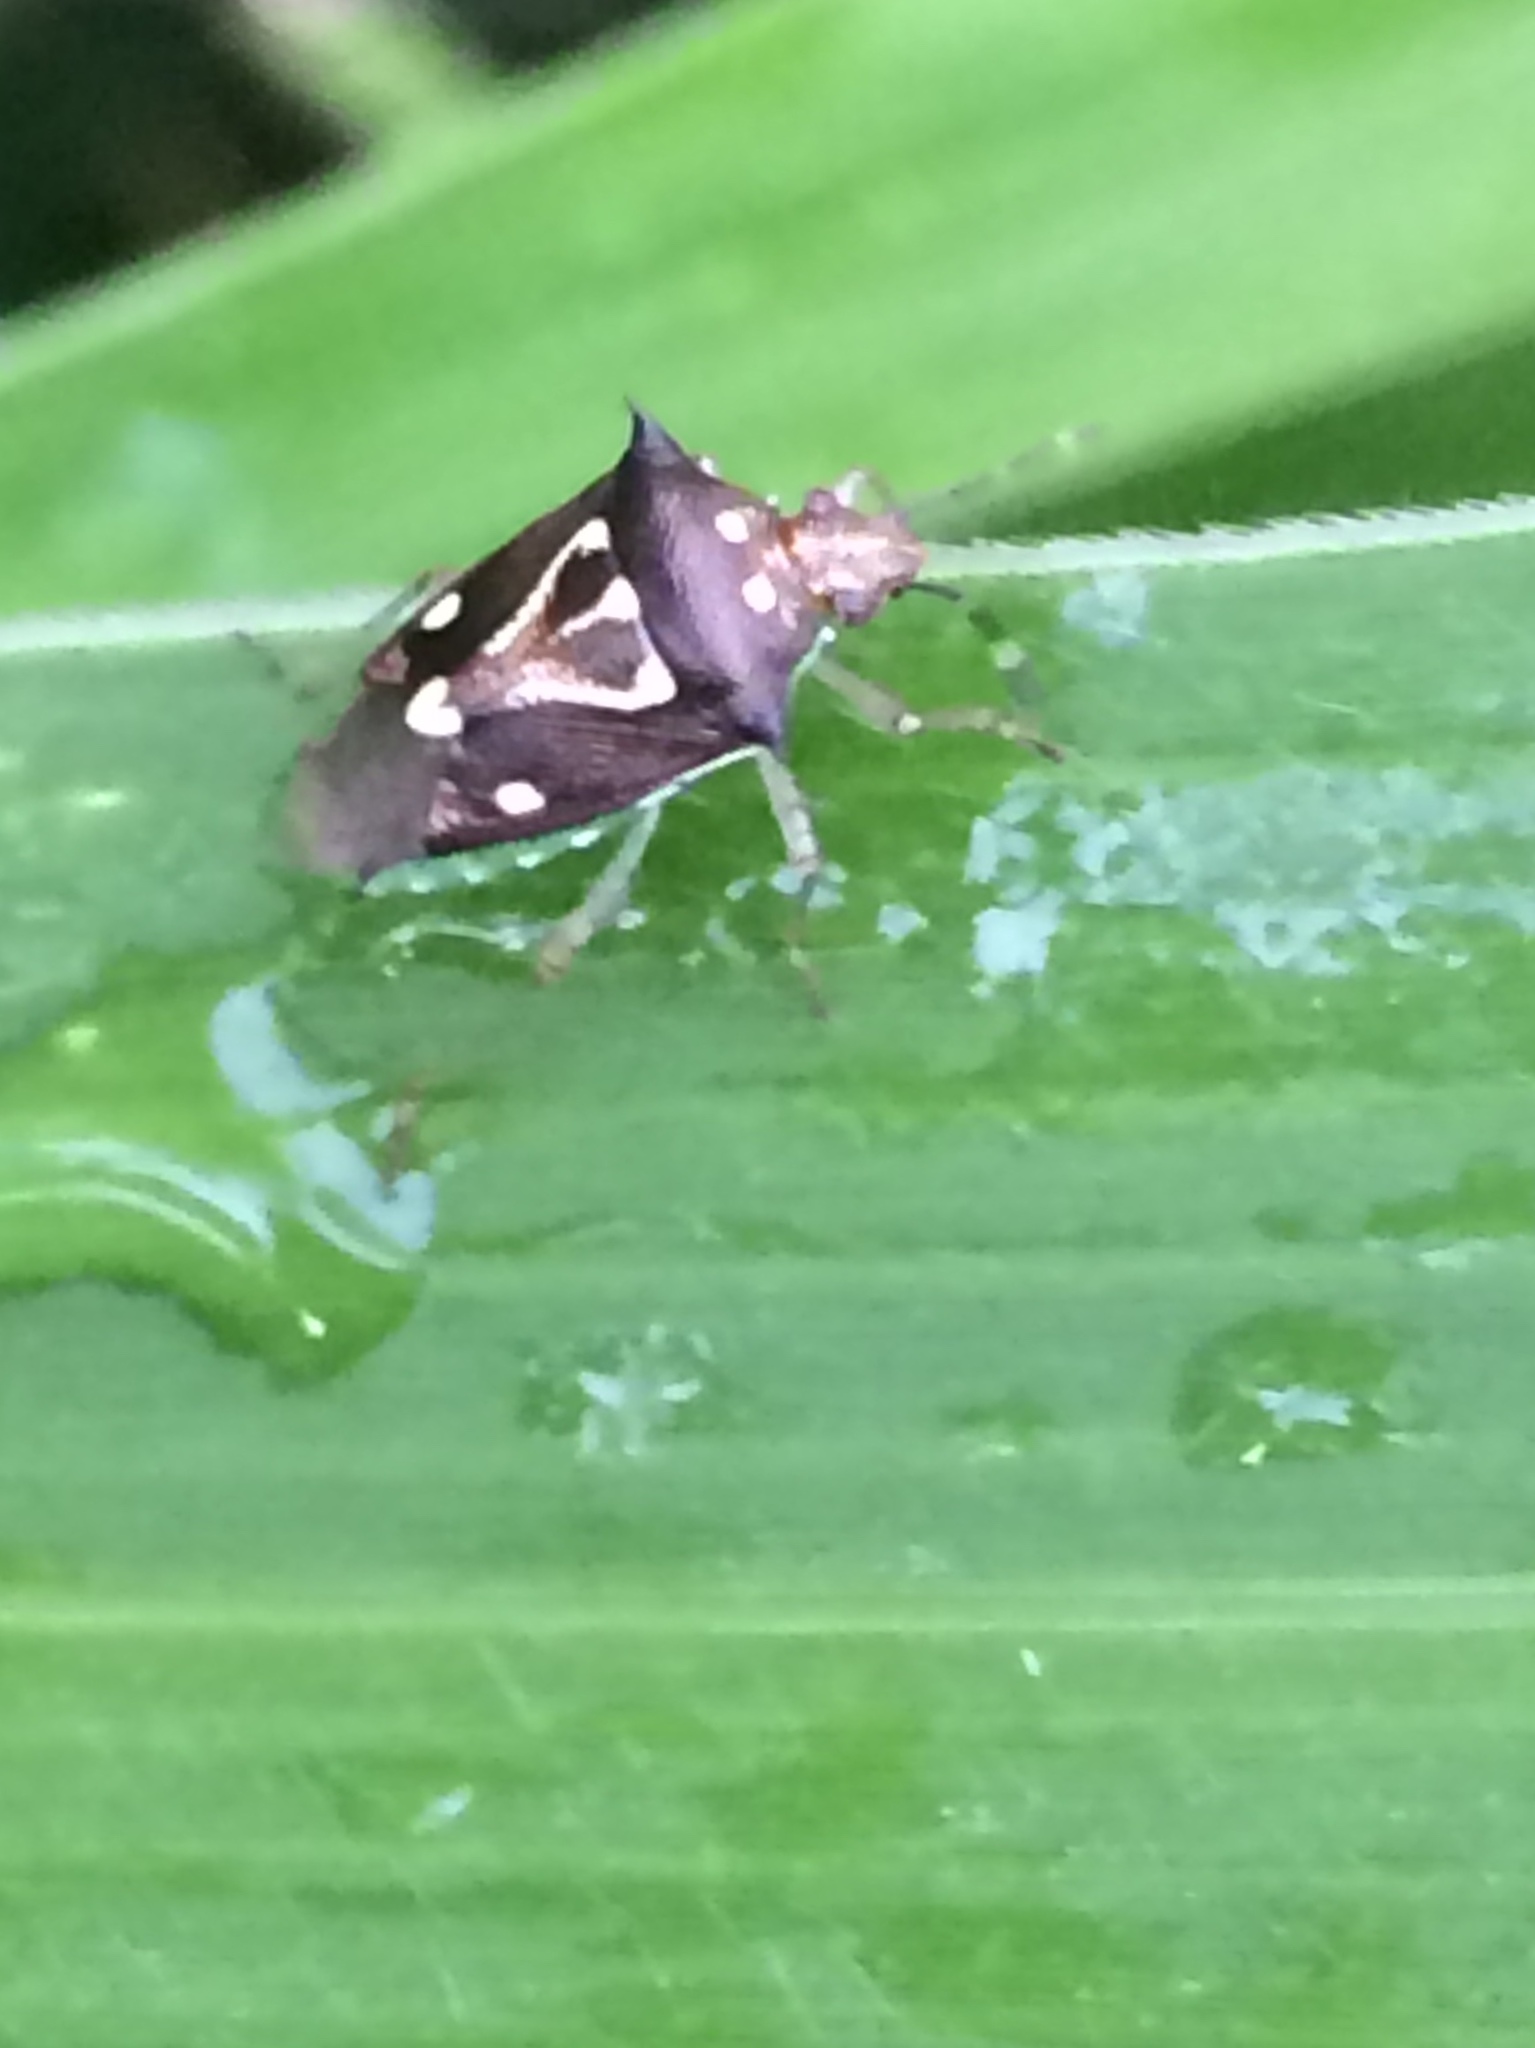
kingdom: Animalia
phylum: Arthropoda
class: Insecta
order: Hemiptera
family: Pentatomidae
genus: Mormidea
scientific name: Mormidea v-luteum
